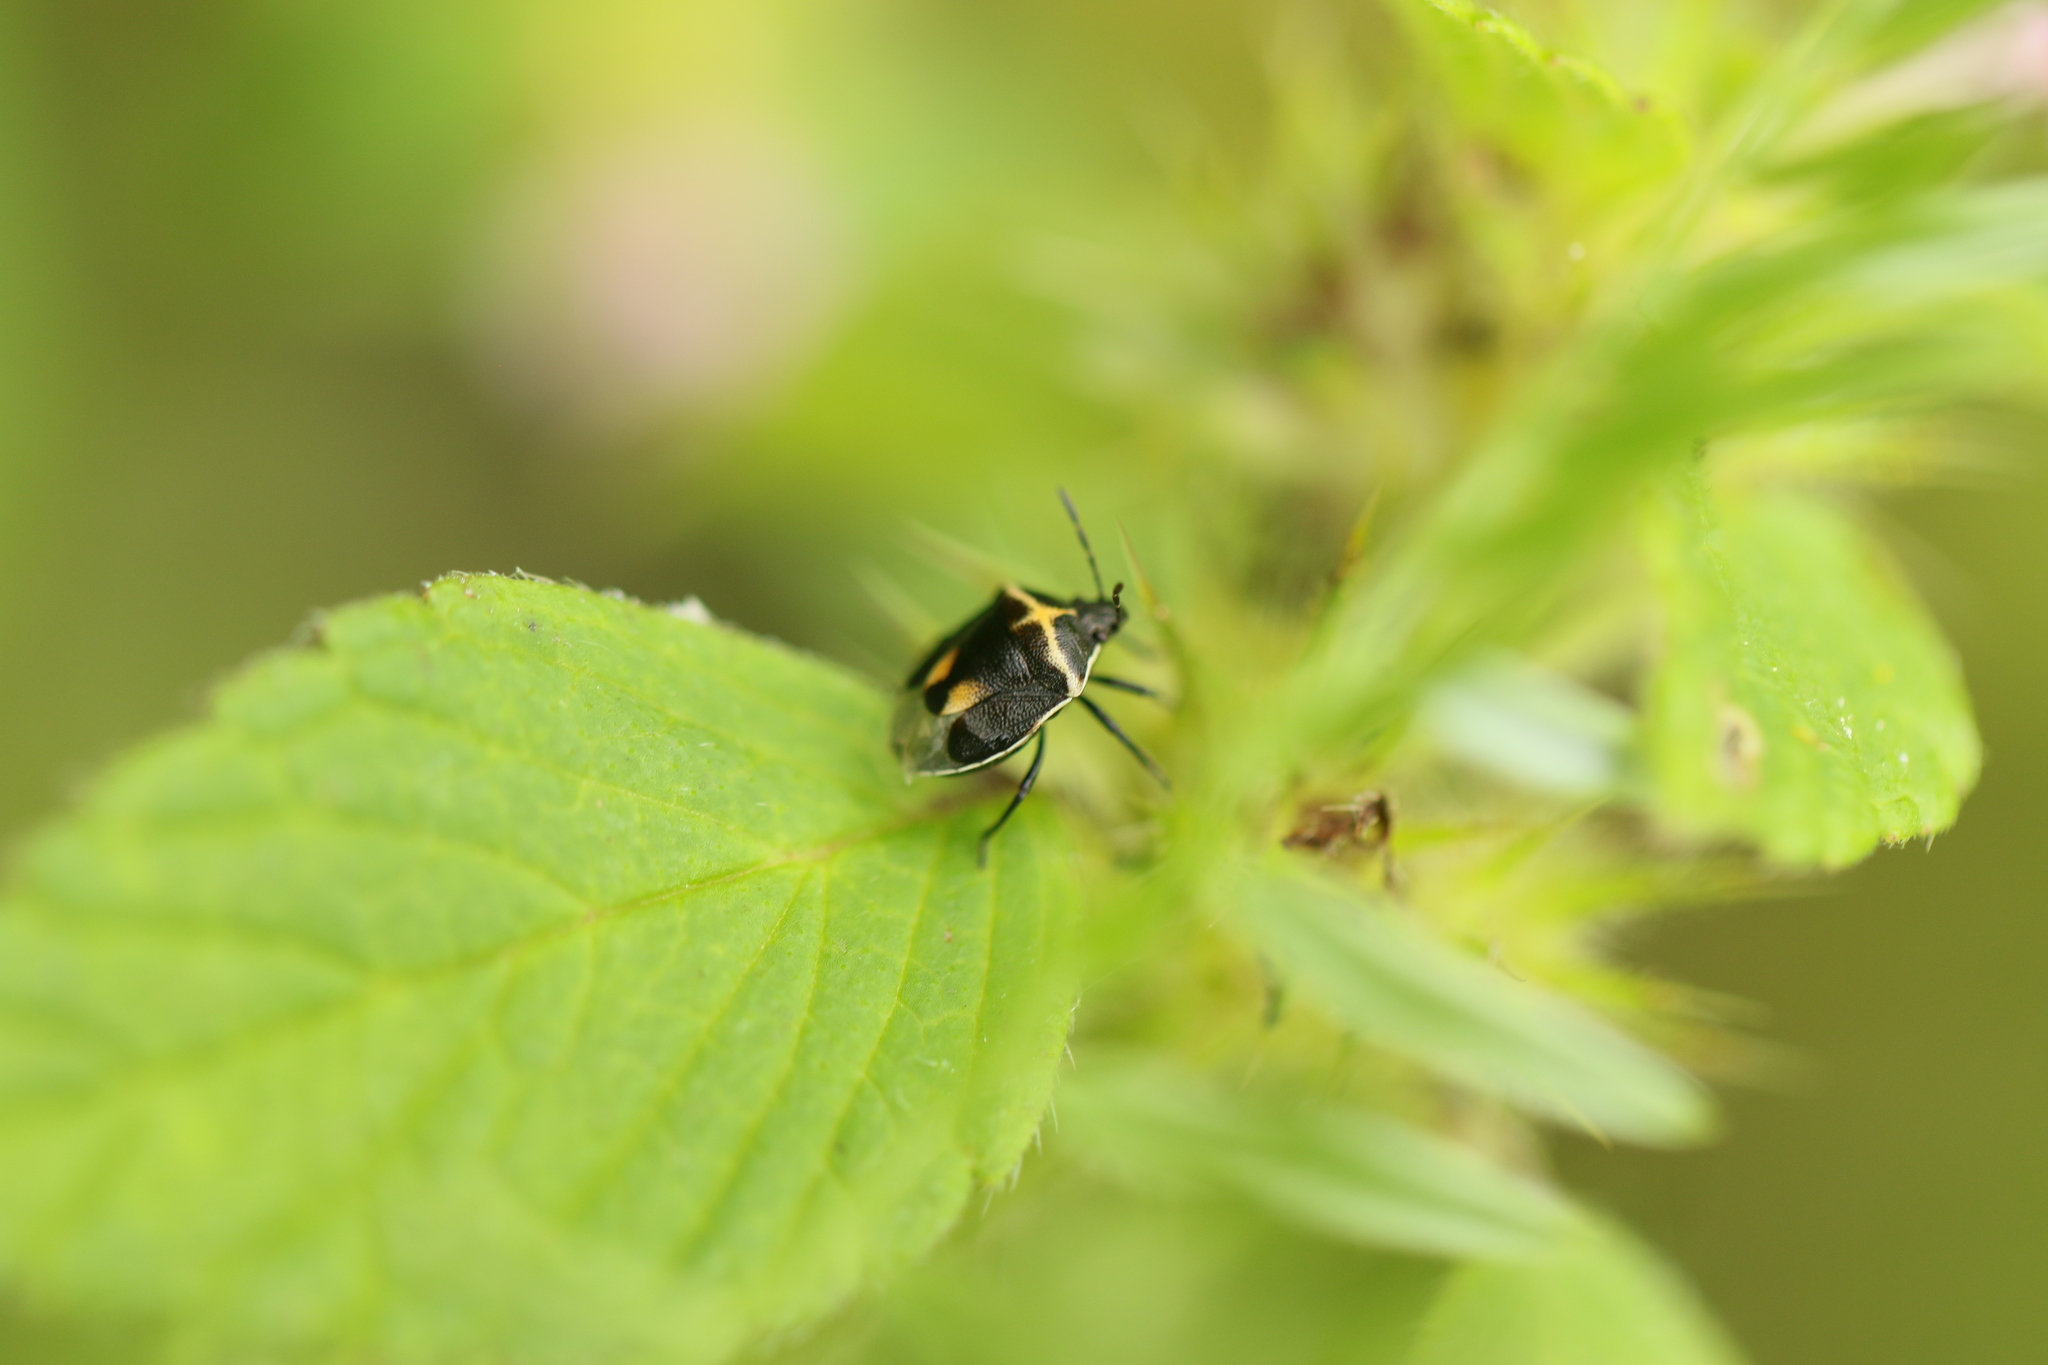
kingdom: Animalia
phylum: Arthropoda
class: Insecta
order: Hemiptera
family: Pentatomidae
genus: Cosmopepla
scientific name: Cosmopepla lintneriana
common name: Twice-stabbed stink bug
